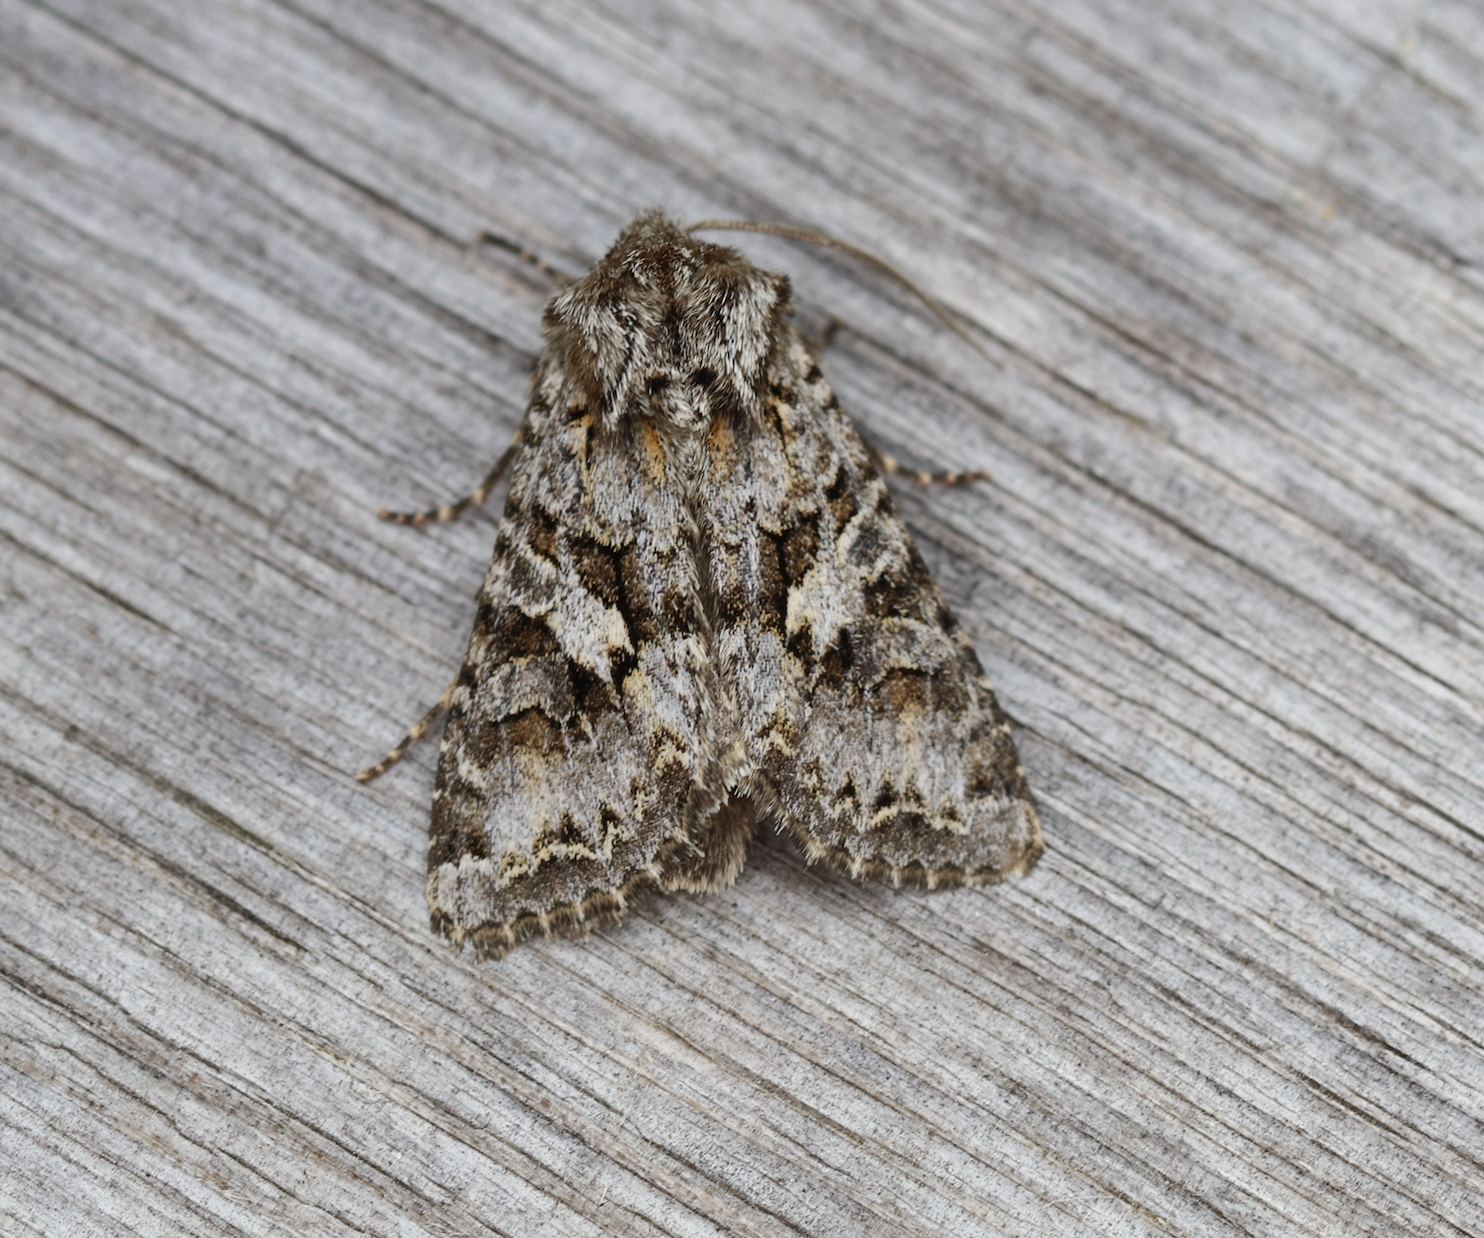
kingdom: Animalia
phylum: Arthropoda
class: Insecta
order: Lepidoptera
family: Noctuidae
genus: Hada
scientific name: Hada plebeja
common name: Shears
